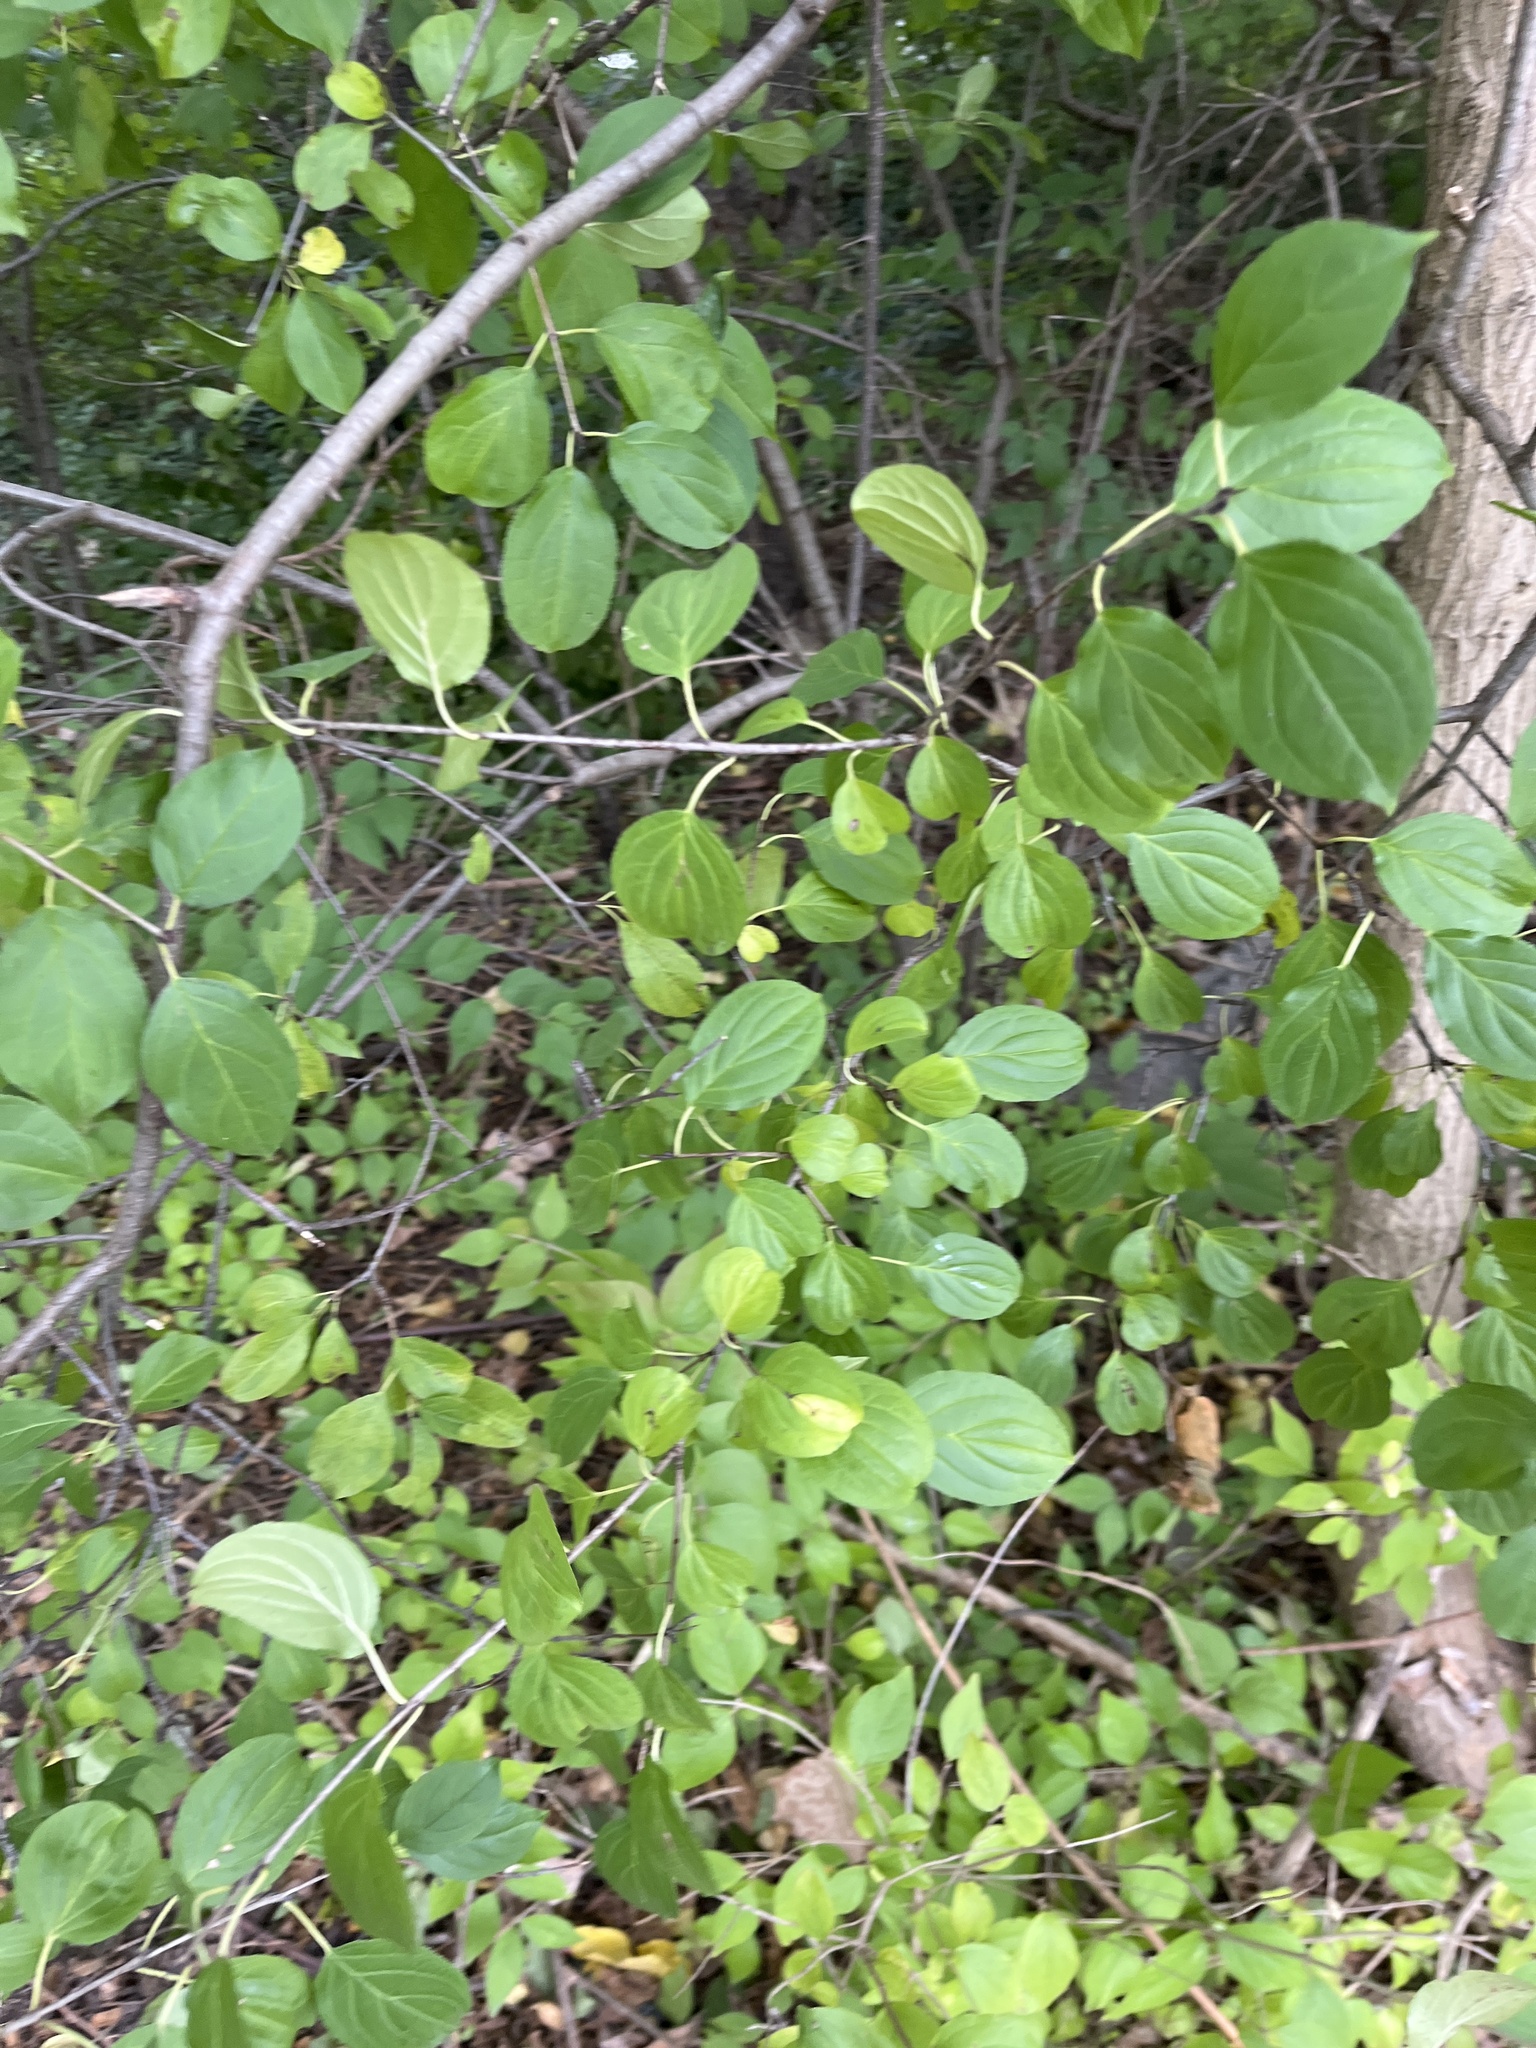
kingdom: Plantae
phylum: Tracheophyta
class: Magnoliopsida
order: Rosales
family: Rhamnaceae
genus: Rhamnus
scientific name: Rhamnus cathartica
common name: Common buckthorn
